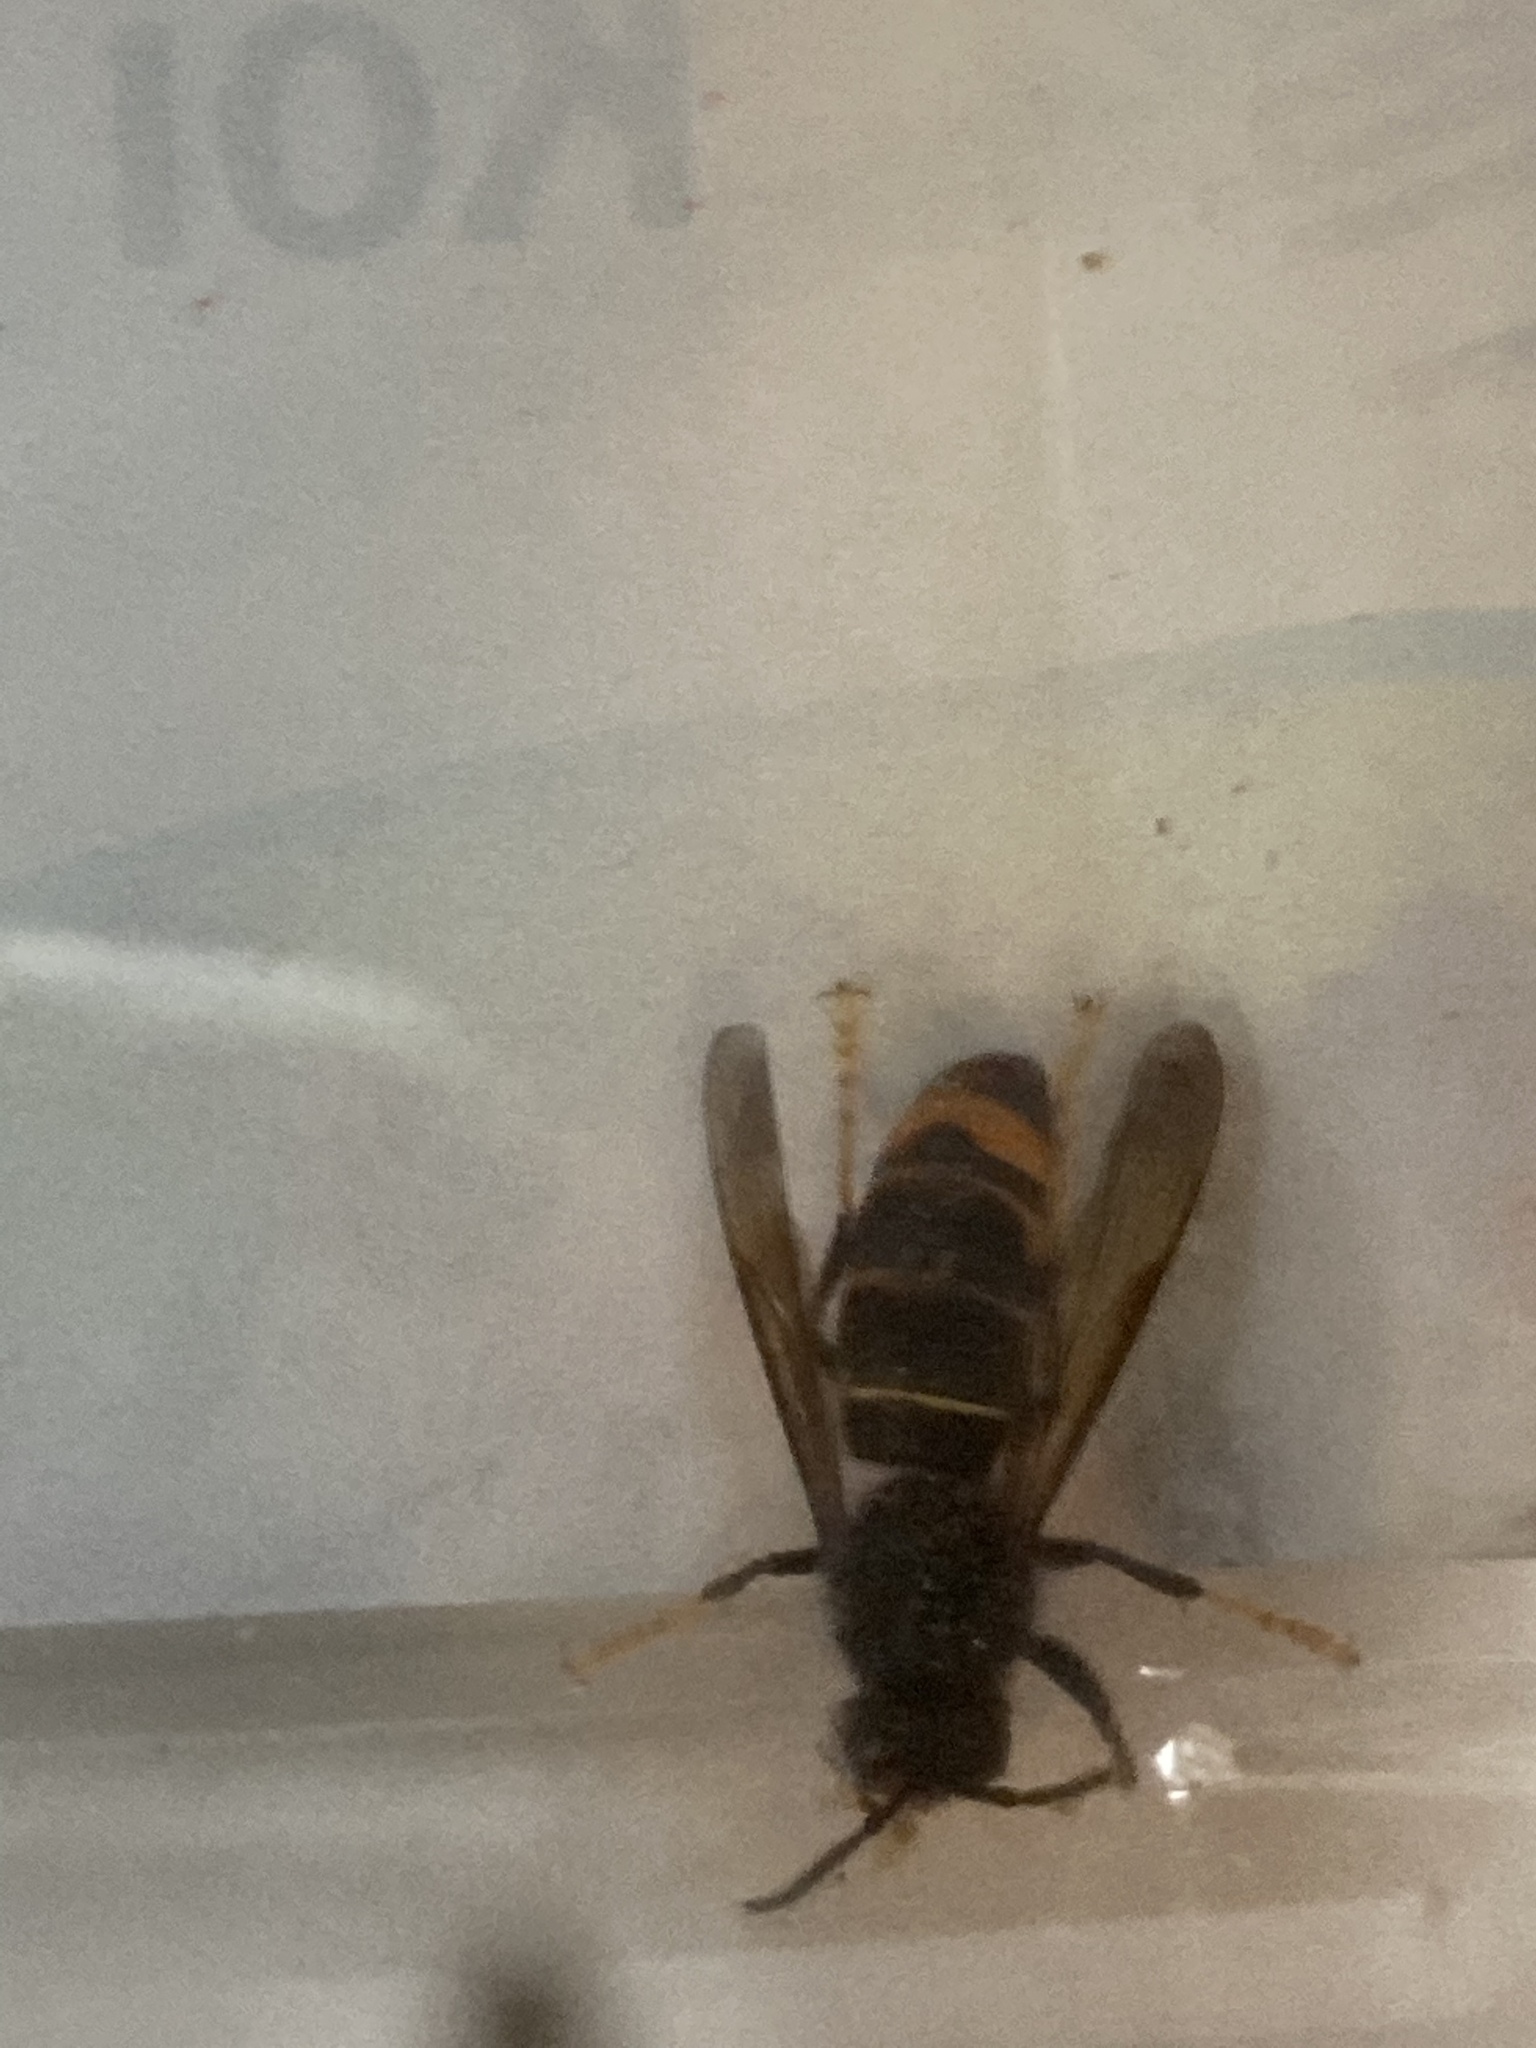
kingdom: Animalia
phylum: Arthropoda
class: Insecta
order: Hymenoptera
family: Vespidae
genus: Vespa
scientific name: Vespa velutina
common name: Asian hornet
